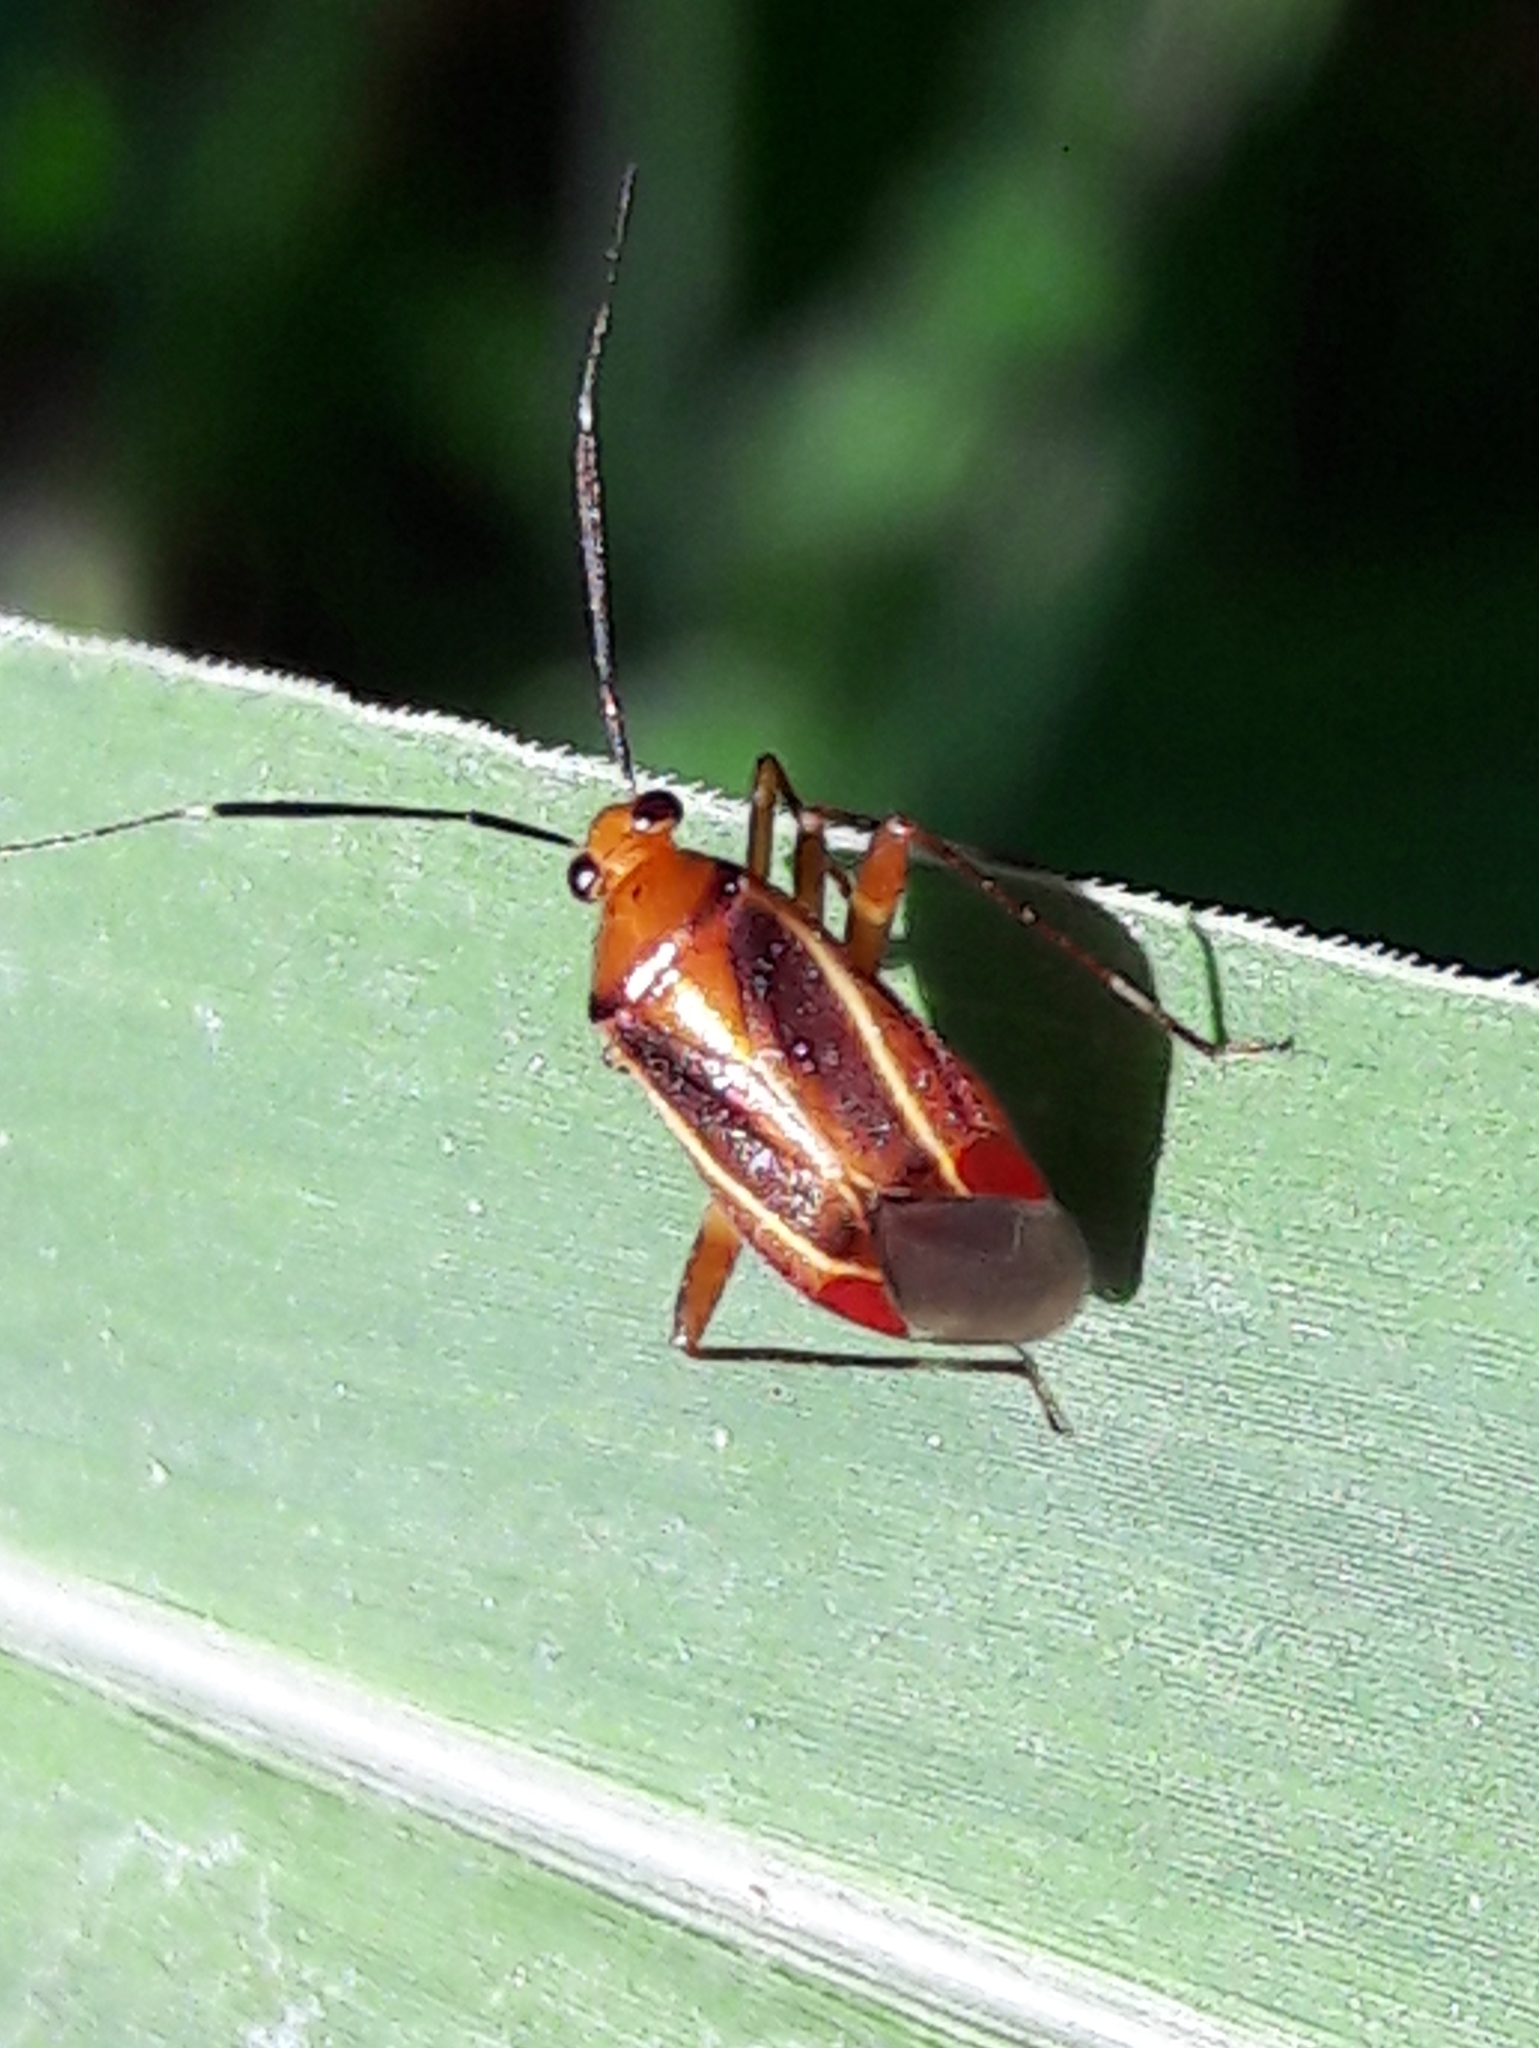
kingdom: Animalia
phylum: Arthropoda
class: Insecta
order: Hemiptera
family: Miridae
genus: Horciasinus
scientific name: Horciasinus signoreti
